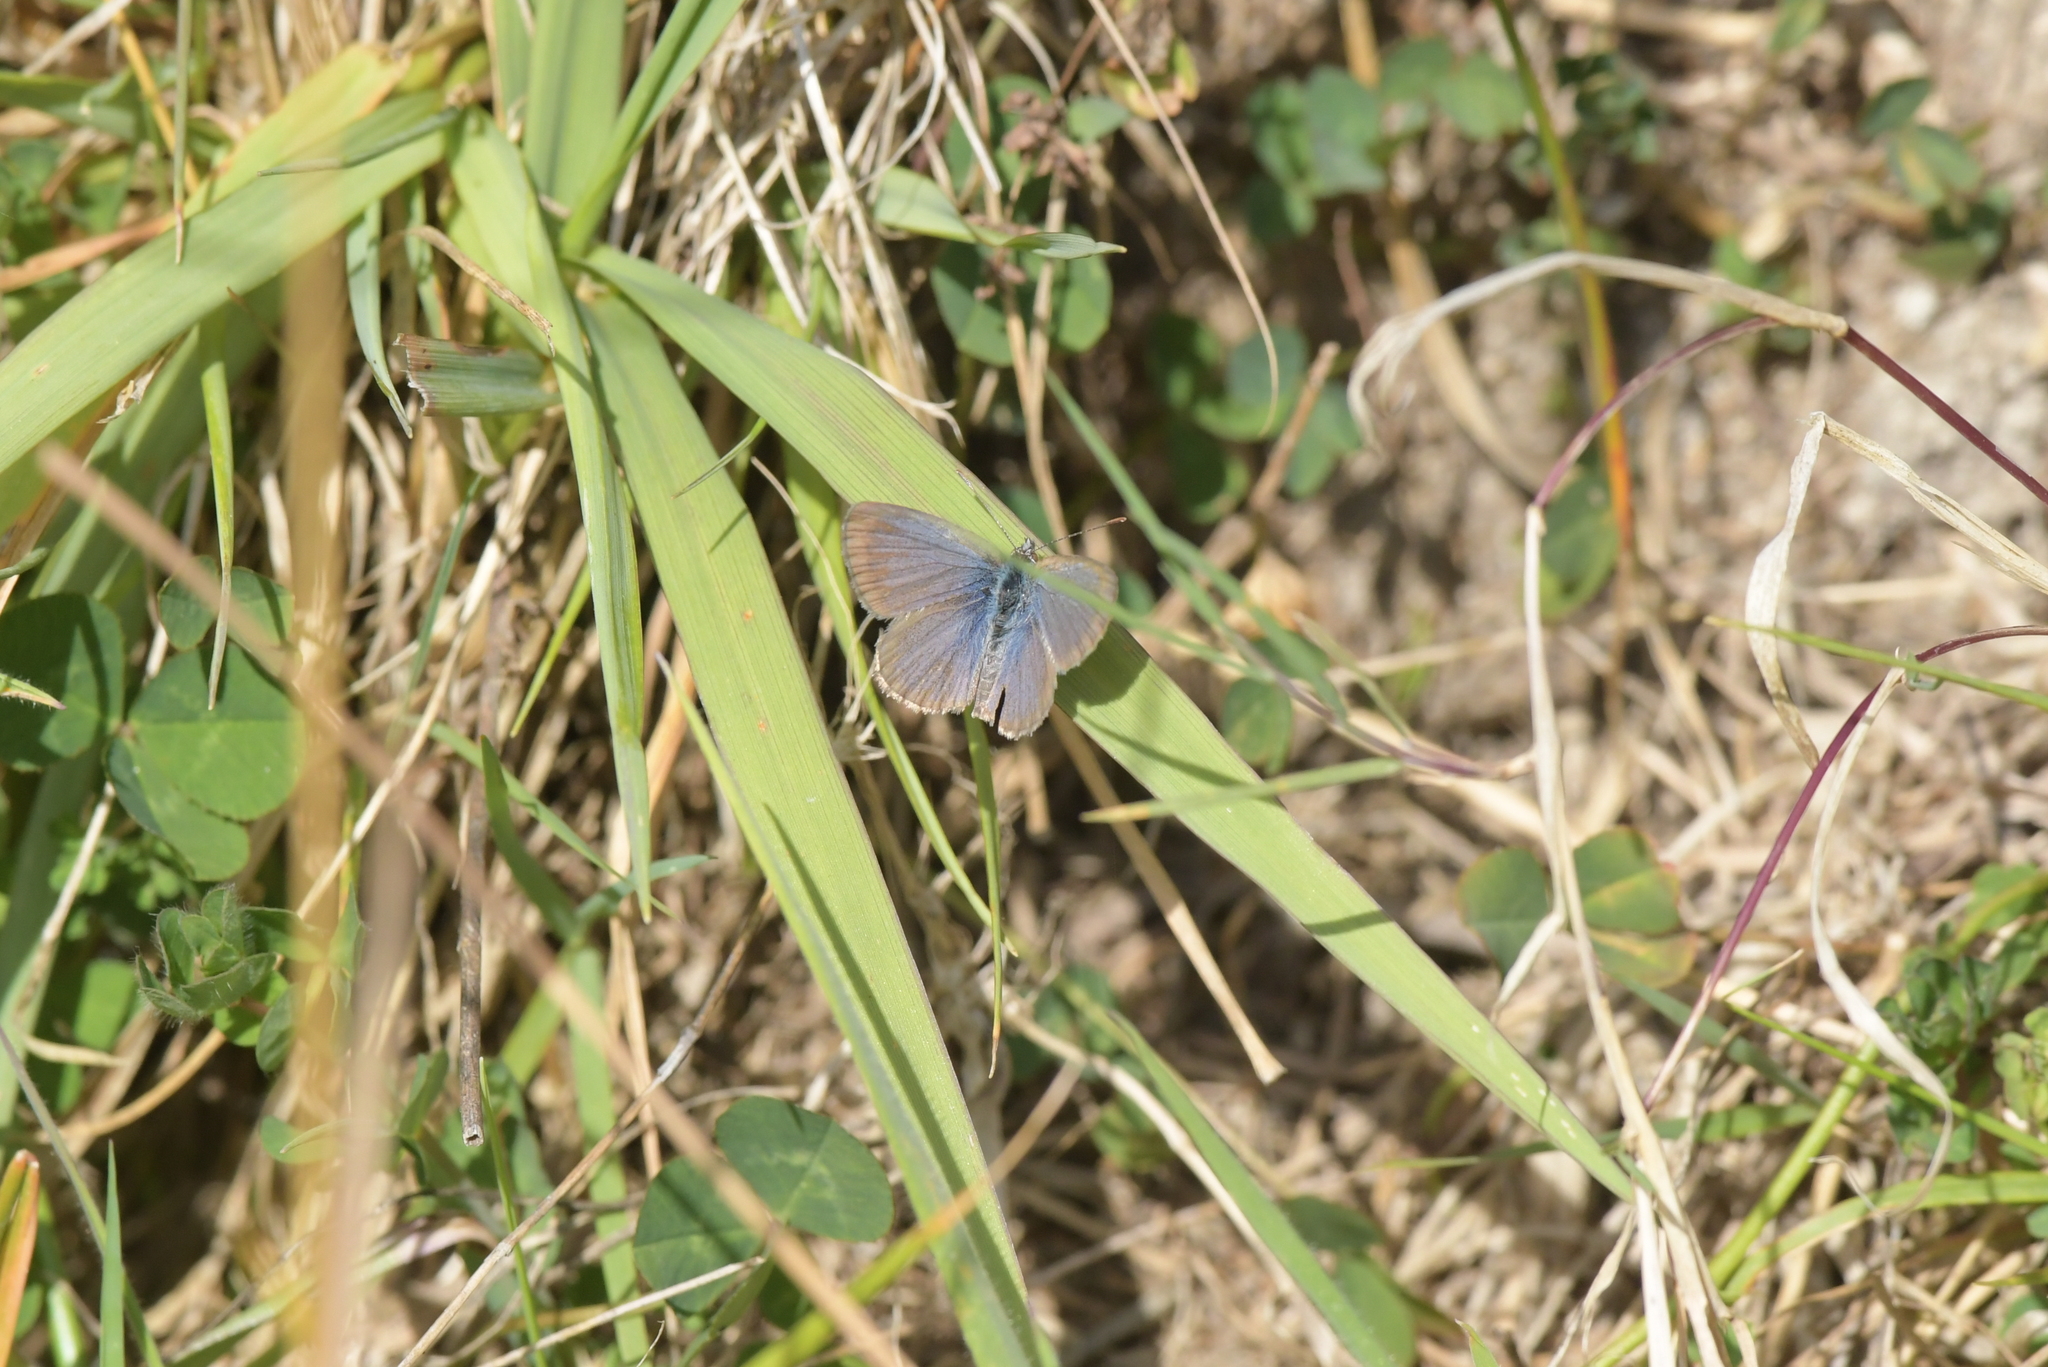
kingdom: Animalia
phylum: Arthropoda
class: Insecta
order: Lepidoptera
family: Lycaenidae
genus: Zizina
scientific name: Zizina labradus
